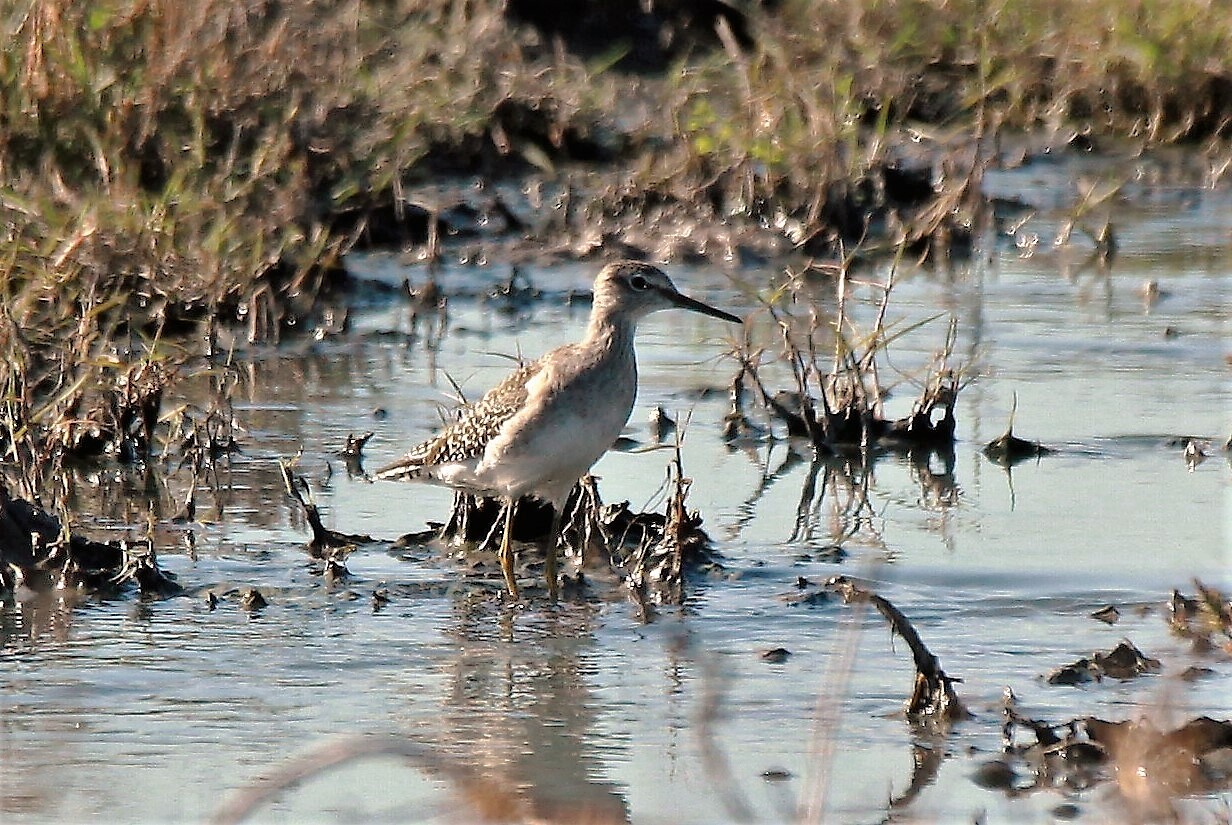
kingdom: Animalia
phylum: Chordata
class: Aves
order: Charadriiformes
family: Scolopacidae
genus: Tringa
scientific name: Tringa glareola
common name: Wood sandpiper
